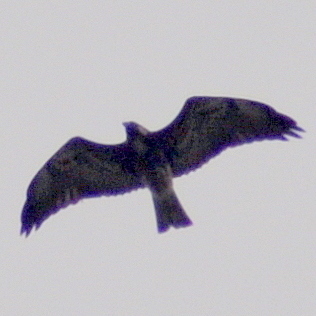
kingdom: Animalia
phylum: Chordata
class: Aves
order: Accipitriformes
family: Accipitridae
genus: Buteo
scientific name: Buteo albicaudatus
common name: White-tailed hawk
